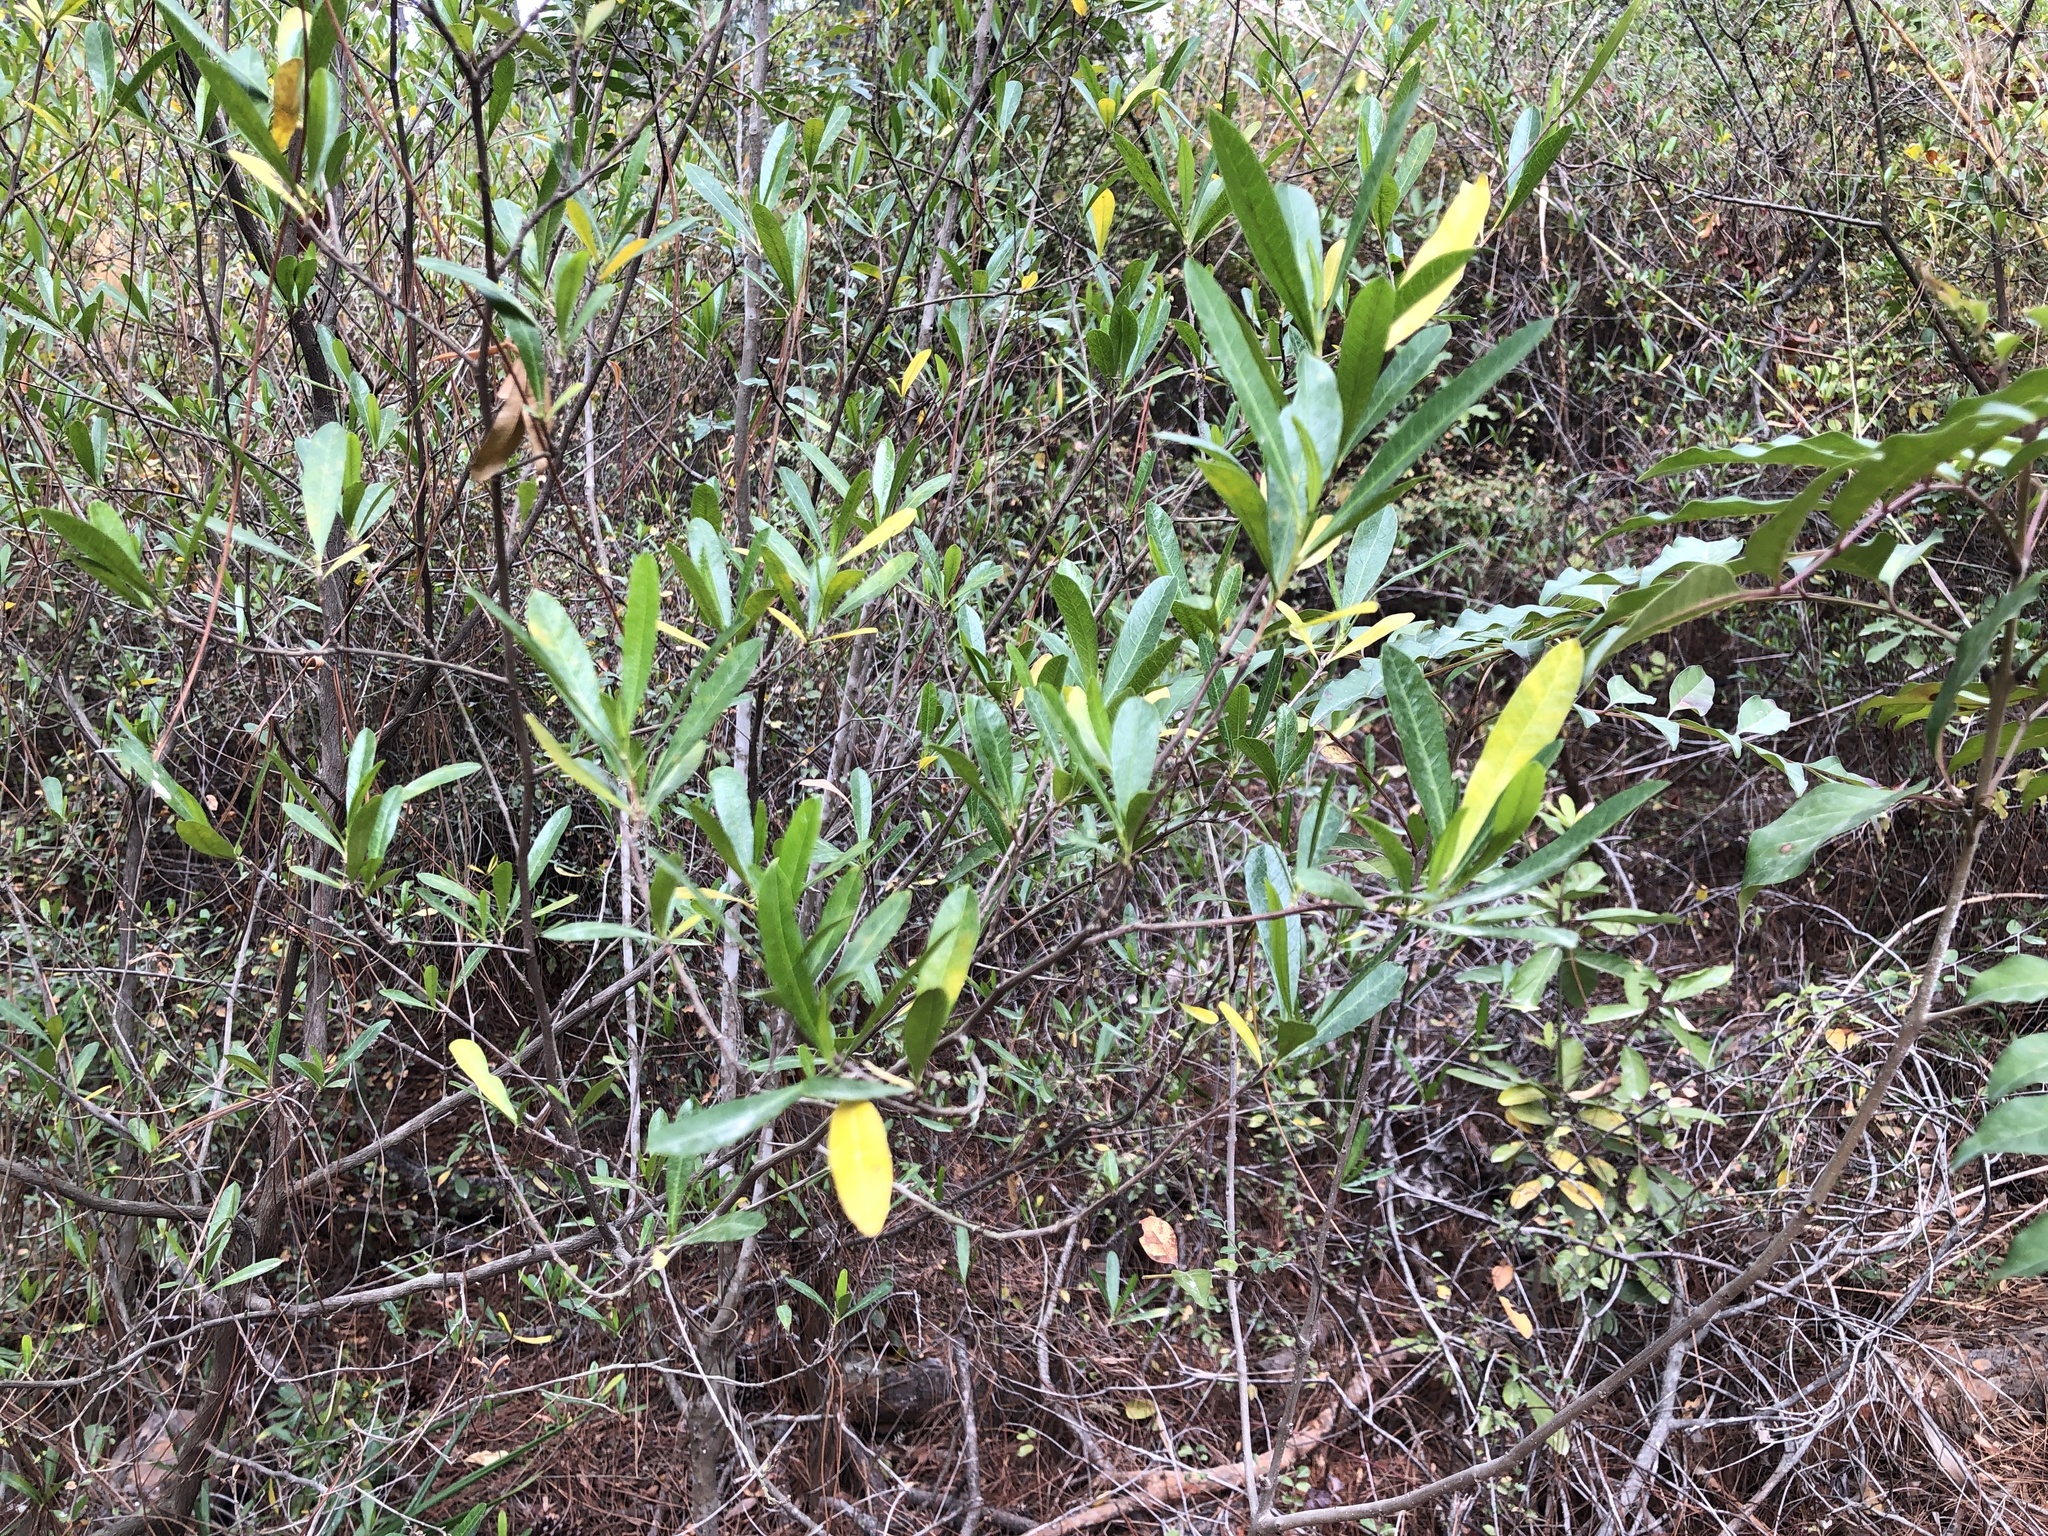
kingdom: Plantae
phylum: Tracheophyta
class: Magnoliopsida
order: Sapindales
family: Sapindaceae
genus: Dodonaea
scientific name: Dodonaea viscosa
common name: Hopbush
